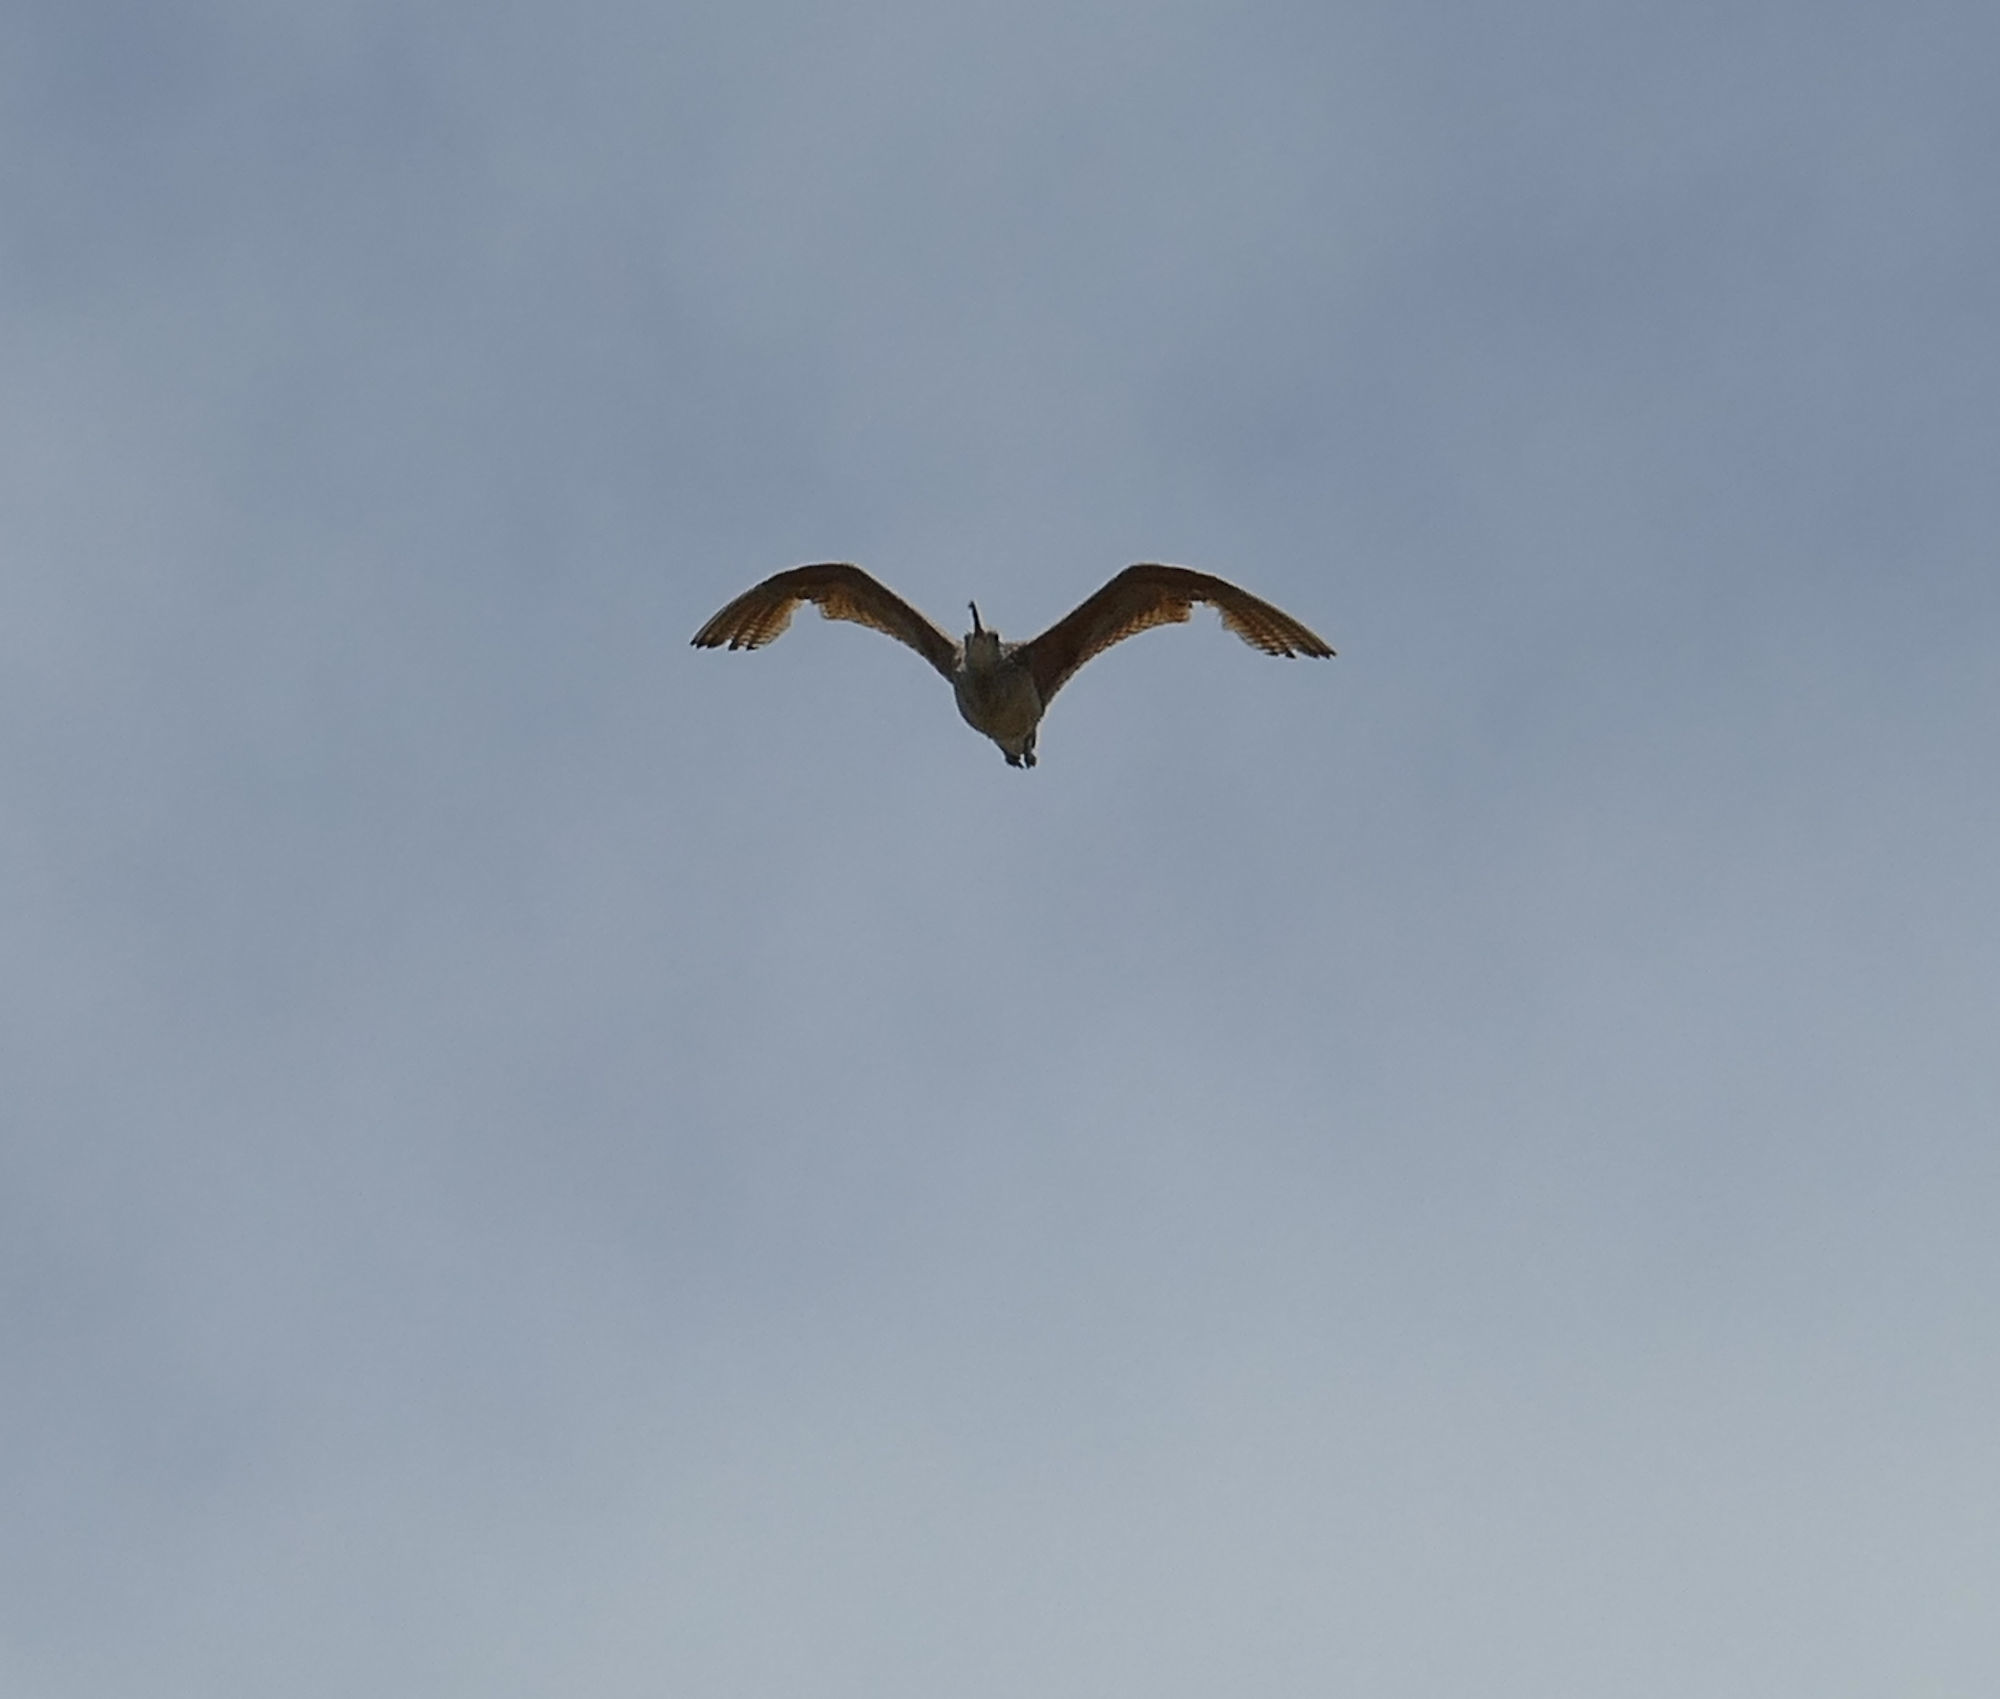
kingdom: Animalia
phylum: Chordata
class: Aves
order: Charadriiformes
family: Scolopacidae
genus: Numenius
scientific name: Numenius americanus
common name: Long-billed curlew
